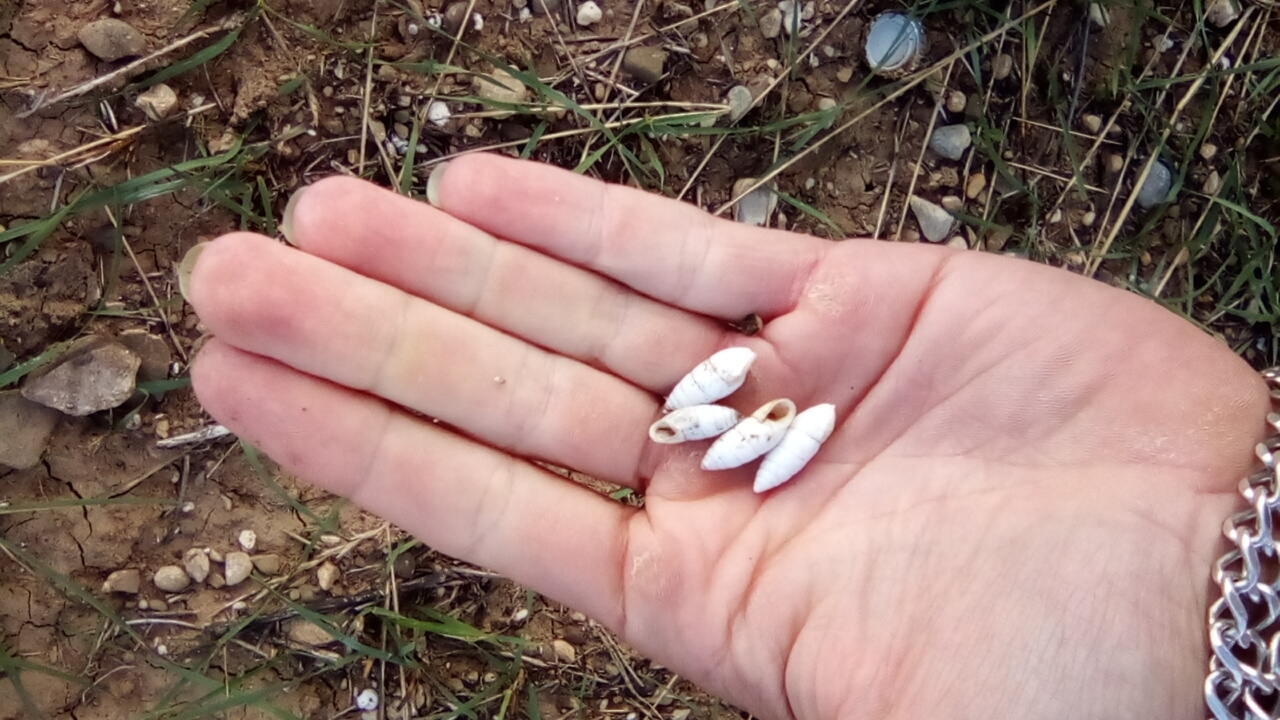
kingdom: Animalia
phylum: Mollusca
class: Gastropoda
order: Stylommatophora
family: Enidae
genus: Brephulopsis
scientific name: Brephulopsis cylindrica
